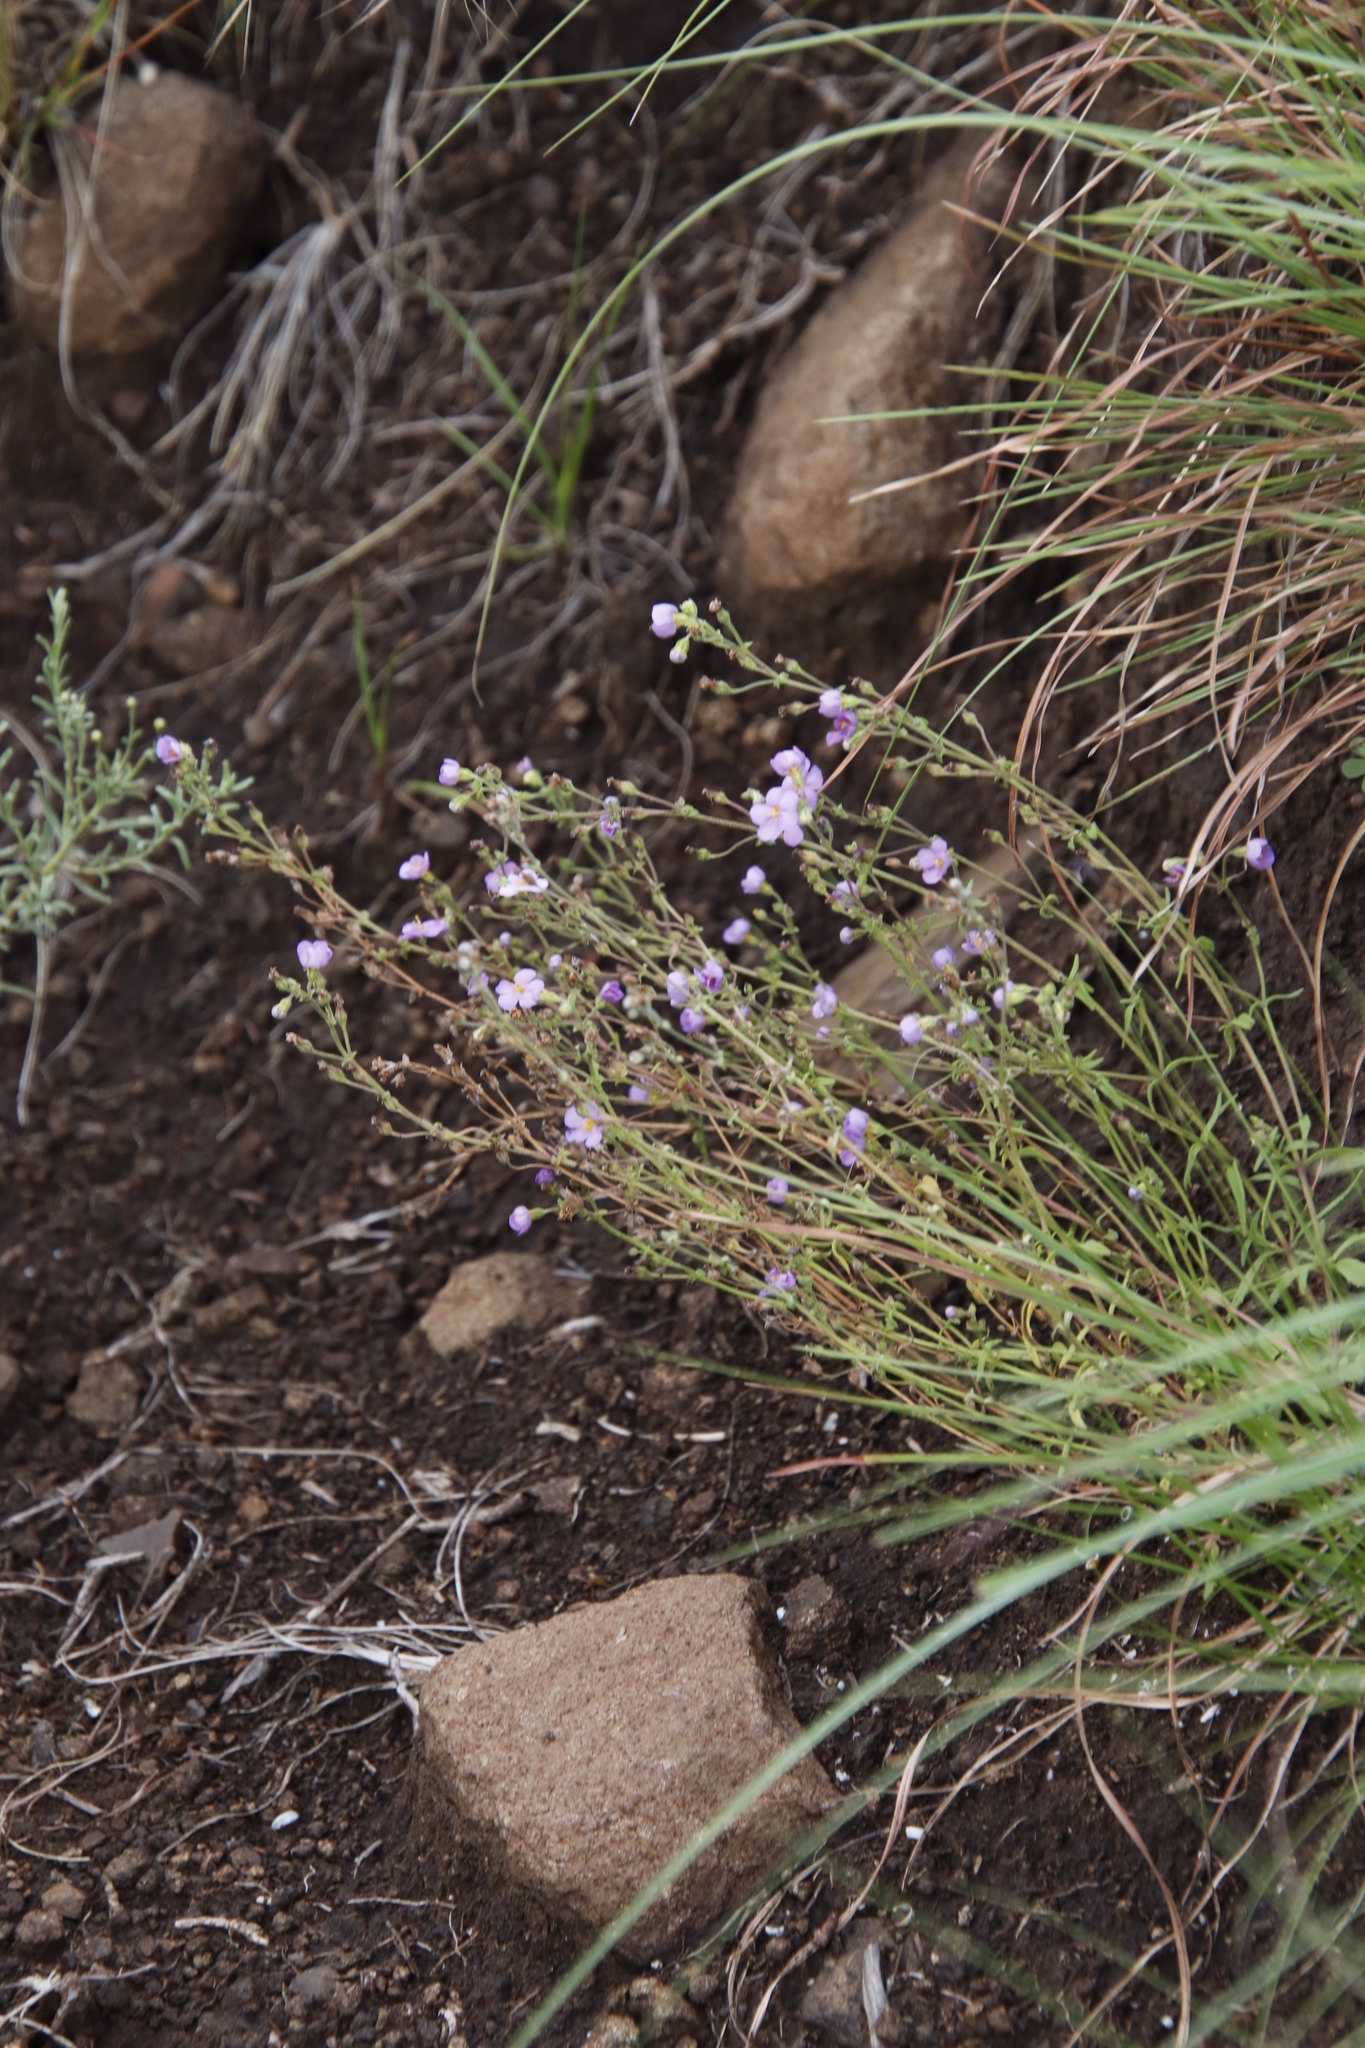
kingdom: Plantae
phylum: Tracheophyta
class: Magnoliopsida
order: Lamiales
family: Scrophulariaceae
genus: Chaenostoma
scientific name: Chaenostoma patrioticum
